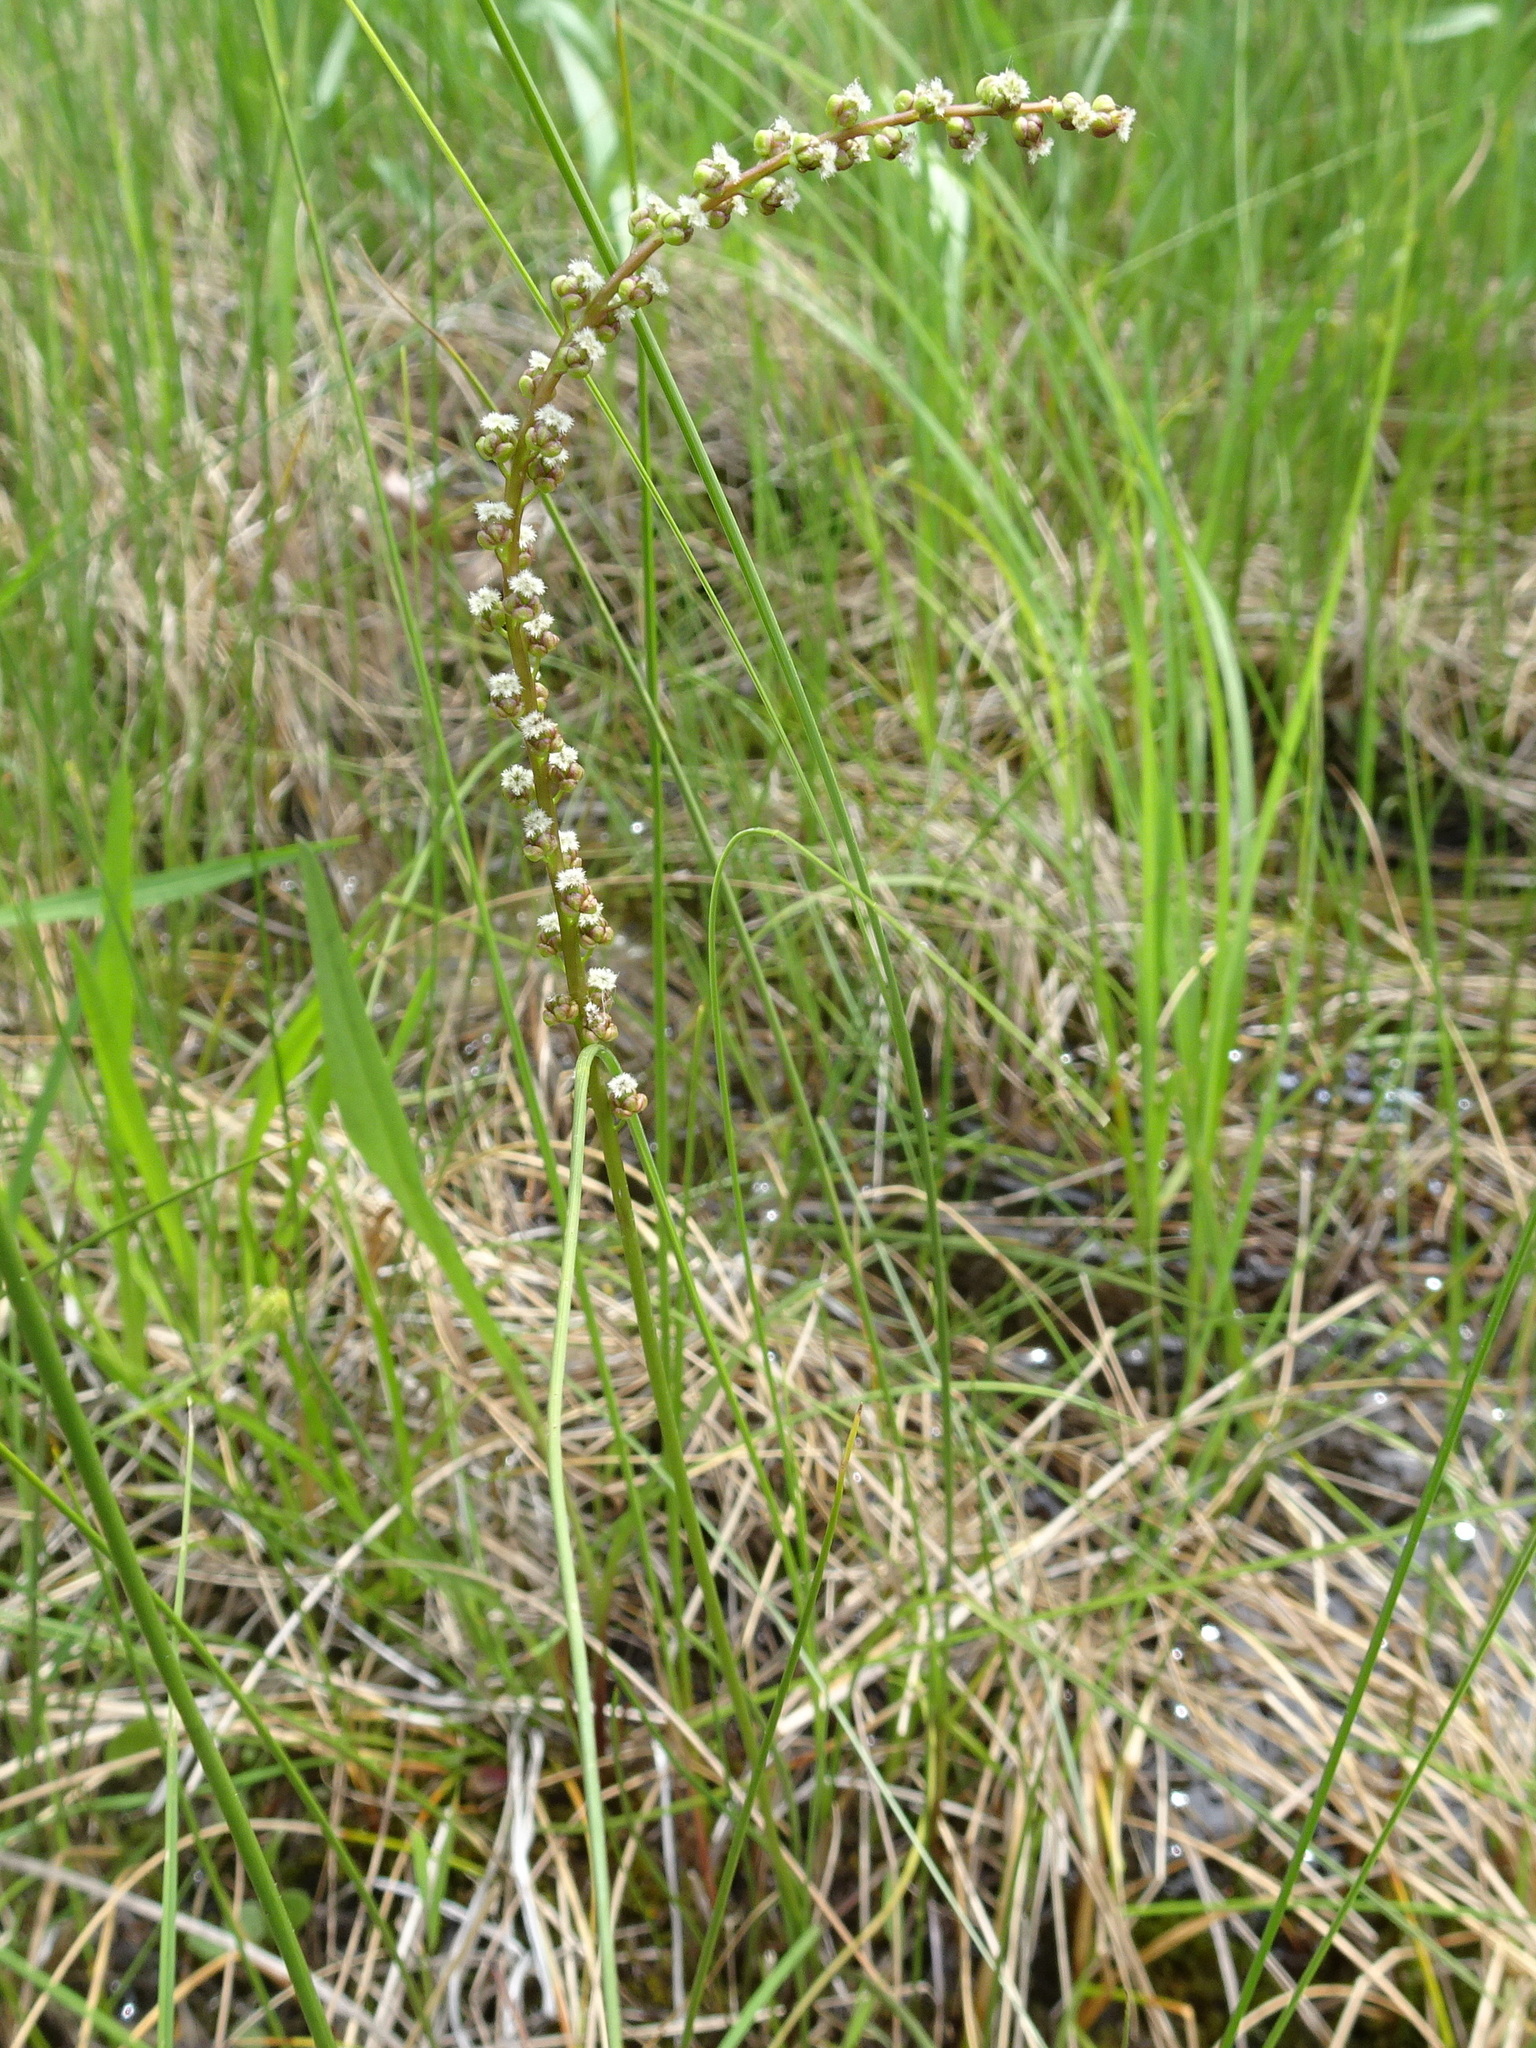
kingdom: Plantae
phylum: Tracheophyta
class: Liliopsida
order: Alismatales
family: Juncaginaceae
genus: Triglochin
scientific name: Triglochin maritima
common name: Sea arrowgrass
